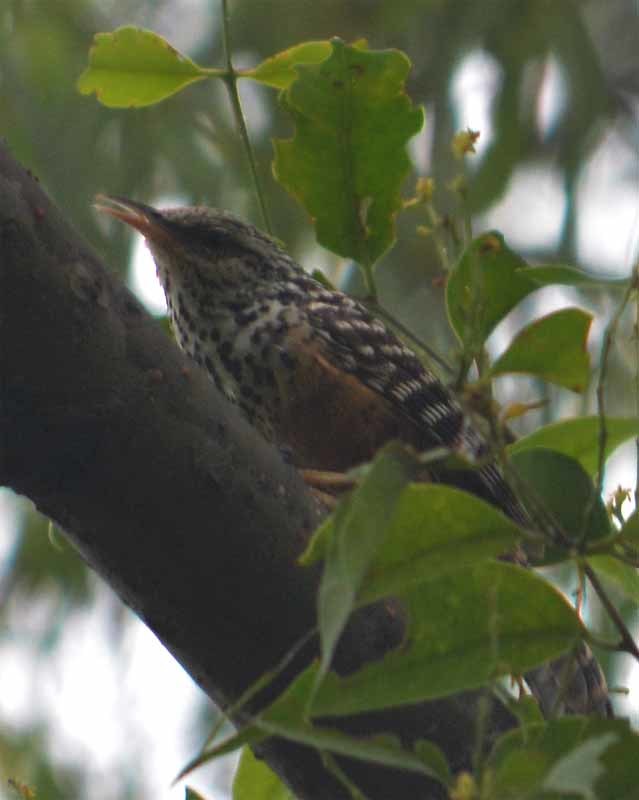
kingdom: Animalia
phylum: Chordata
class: Aves
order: Passeriformes
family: Troglodytidae
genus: Campylorhynchus
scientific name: Campylorhynchus zonatus
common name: Band-backed wren
